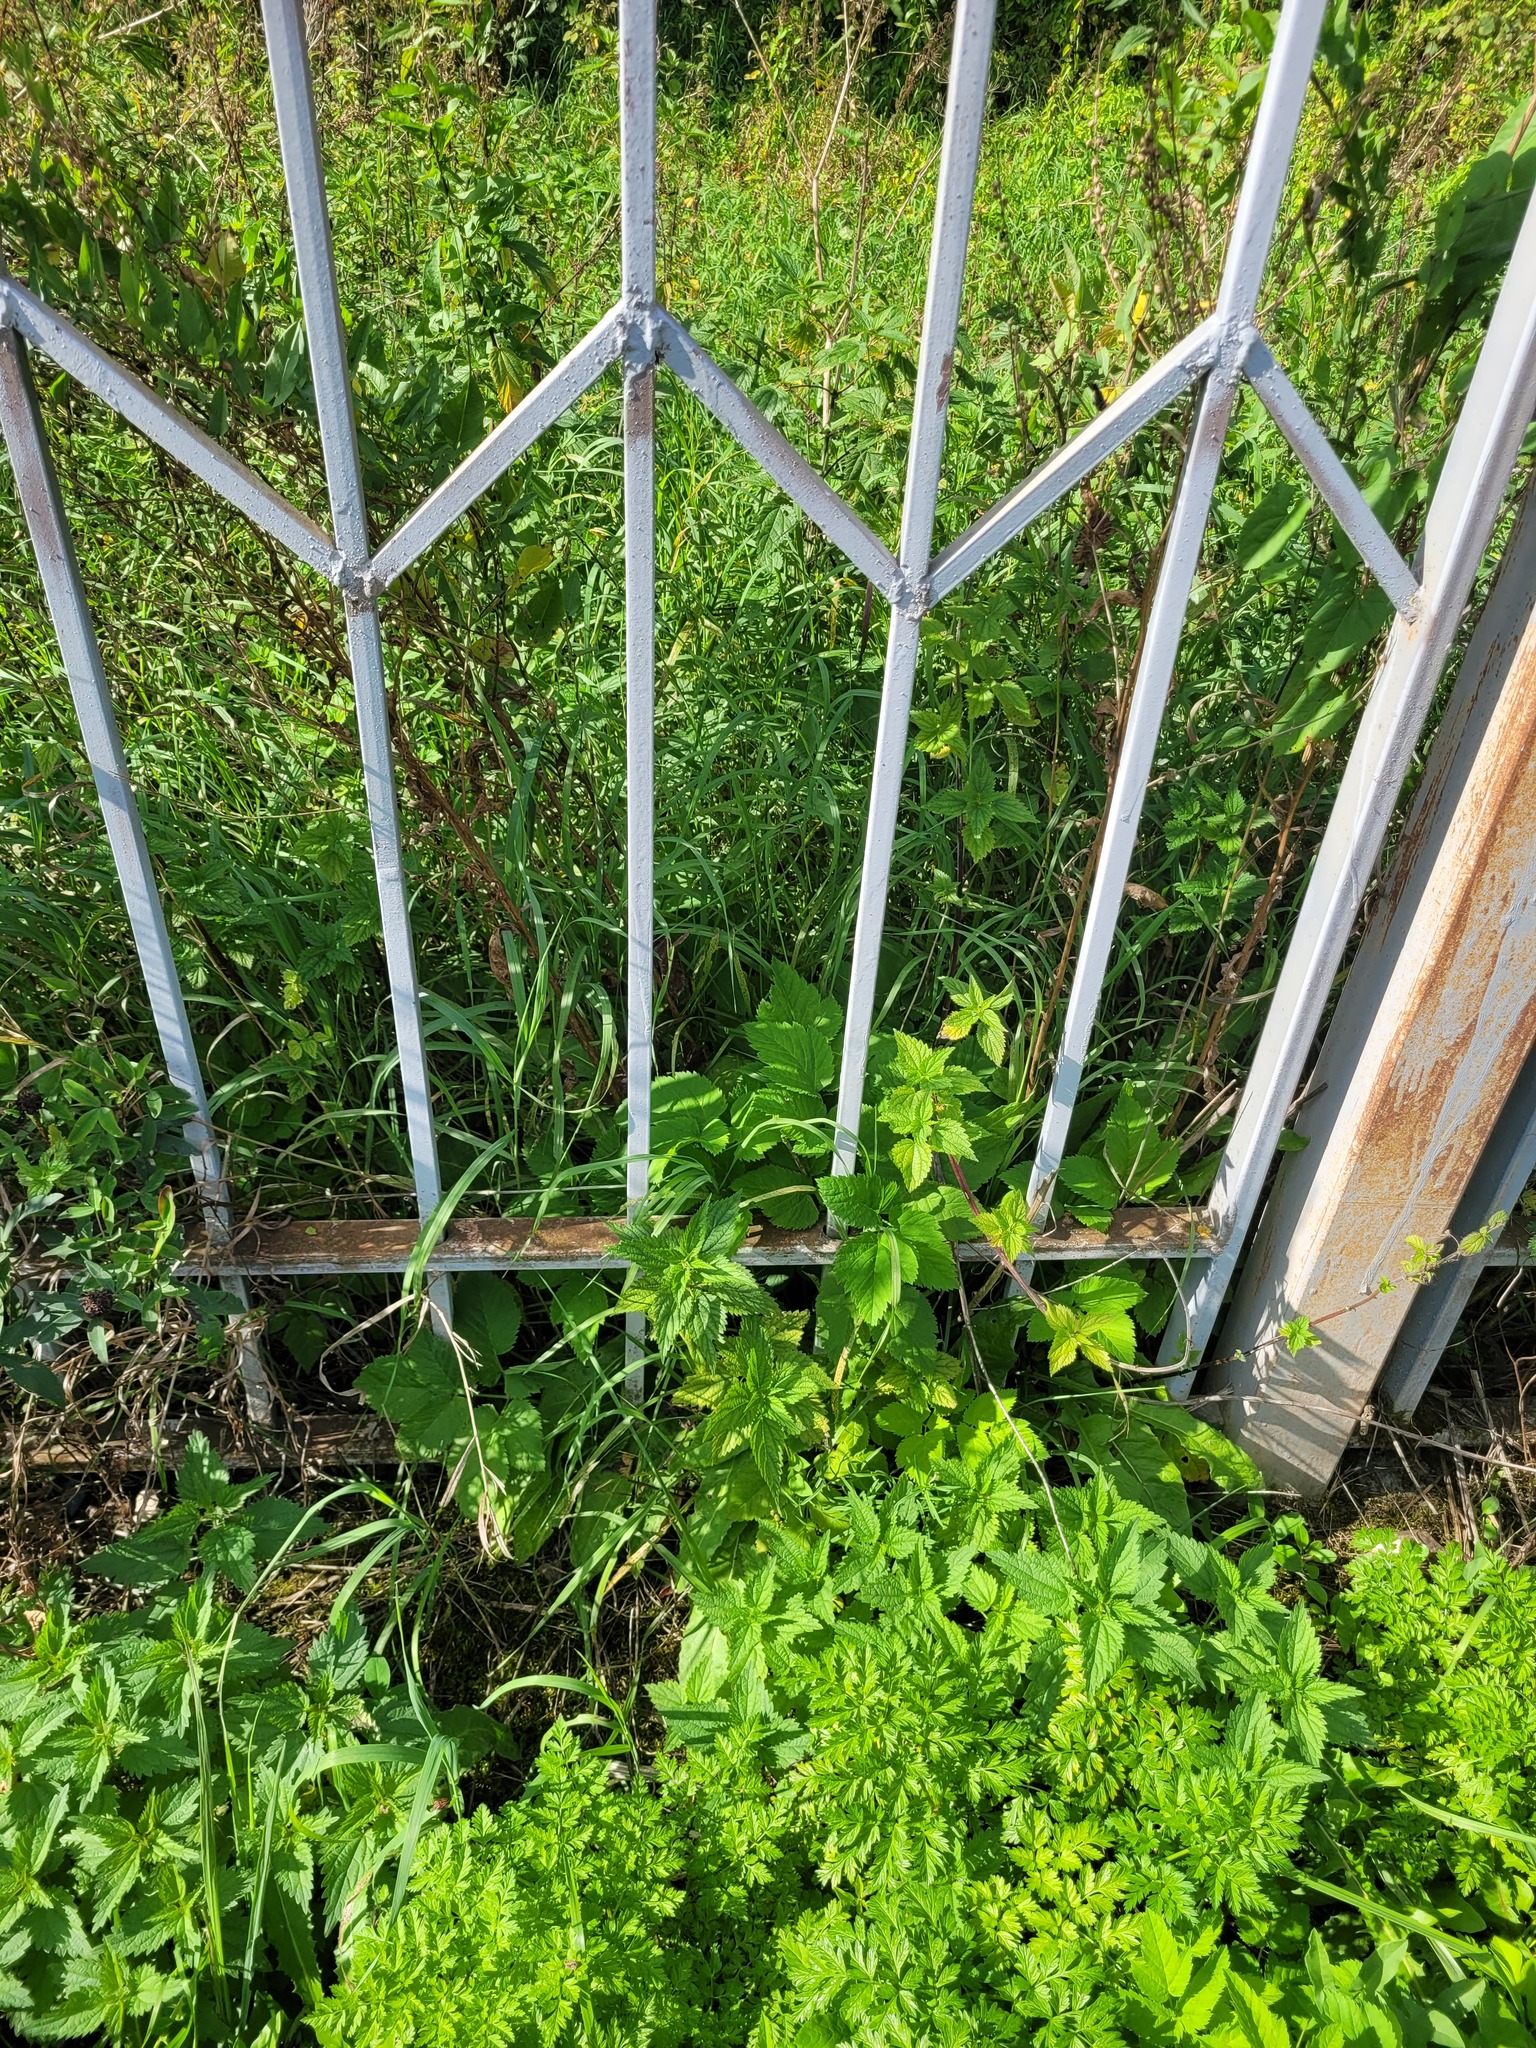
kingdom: Plantae
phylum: Tracheophyta
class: Magnoliopsida
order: Apiales
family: Apiaceae
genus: Aegopodium
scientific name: Aegopodium podagraria
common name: Ground-elder
